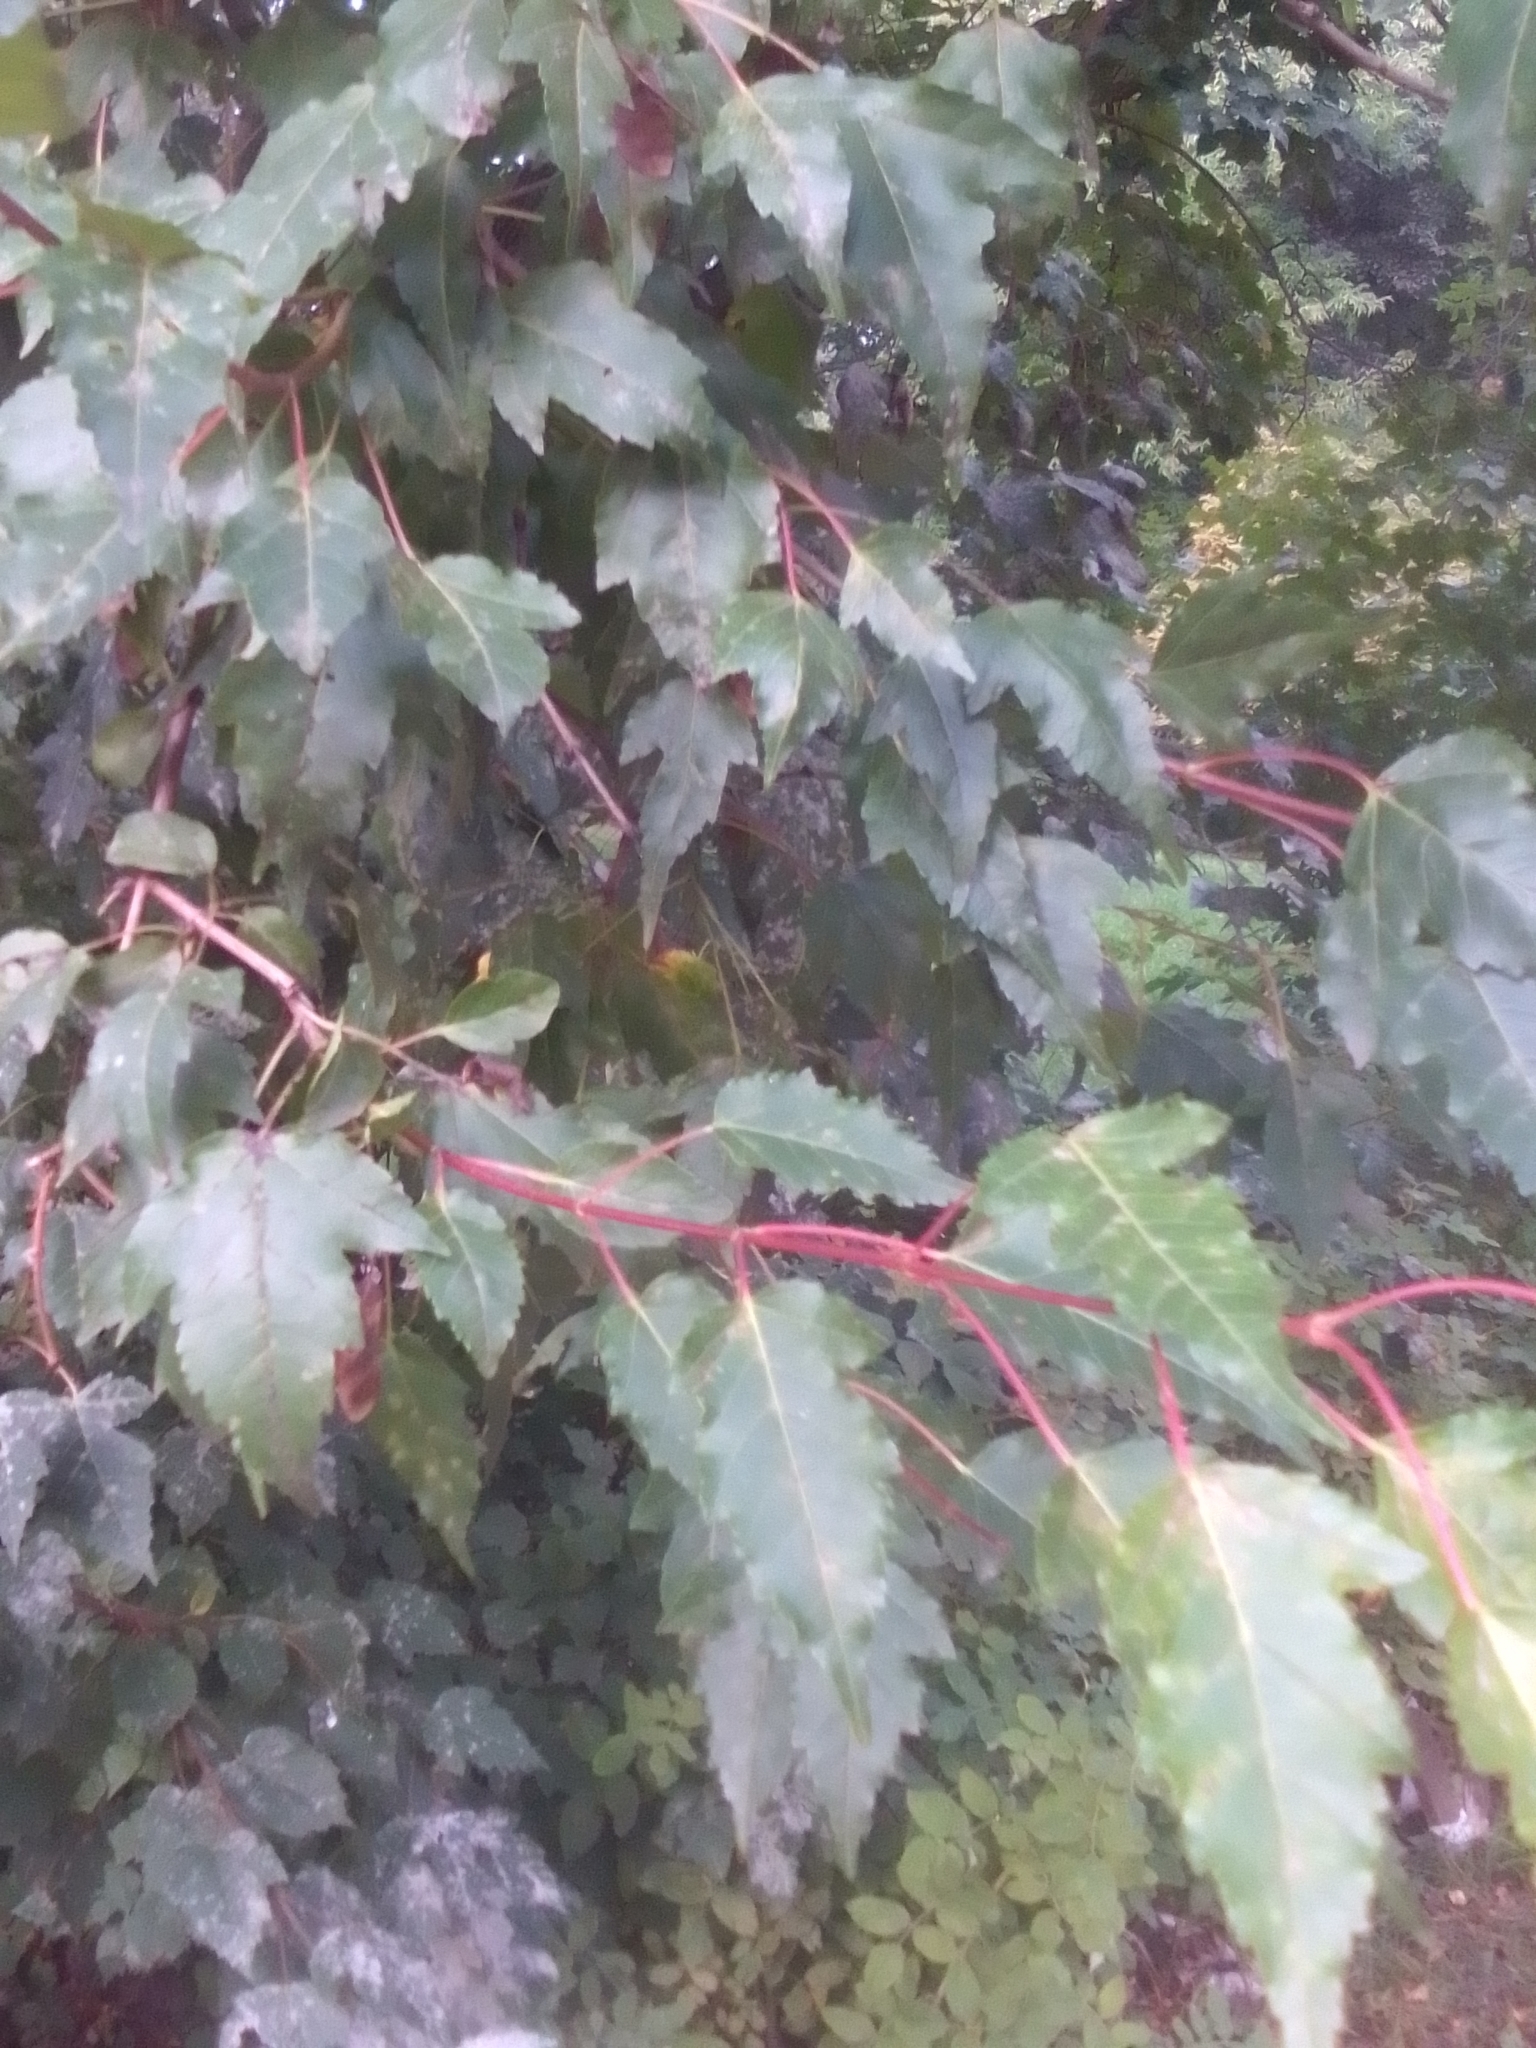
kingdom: Plantae
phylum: Tracheophyta
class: Magnoliopsida
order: Sapindales
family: Sapindaceae
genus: Acer
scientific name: Acer tataricum
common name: Tartar maple
